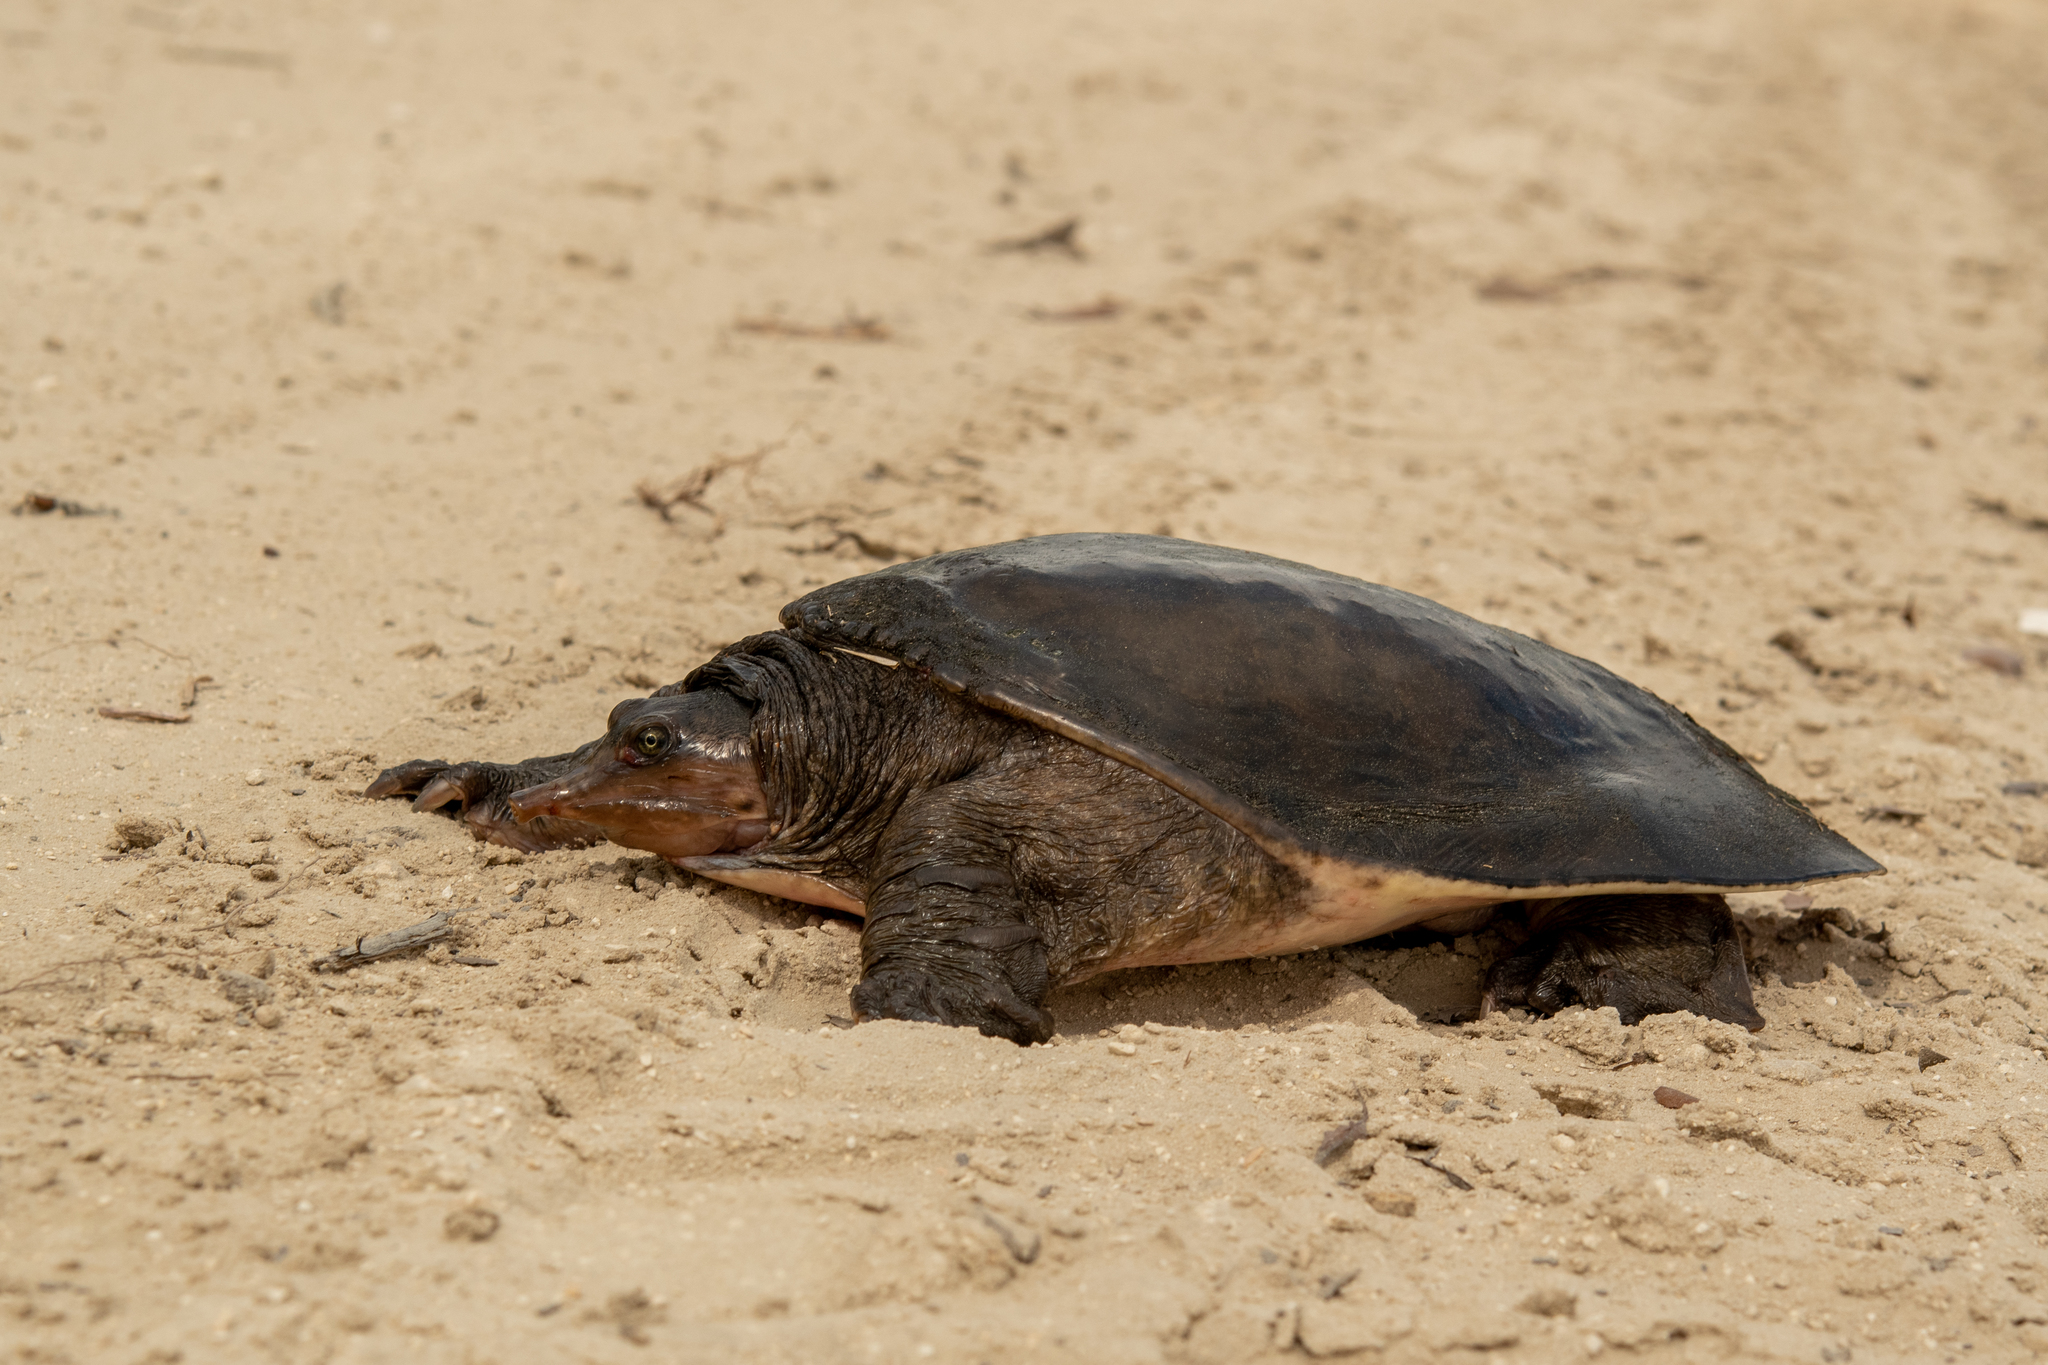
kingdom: Animalia
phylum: Chordata
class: Testudines
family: Trionychidae
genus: Apalone
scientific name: Apalone ferox
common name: Florida softshell turtle
